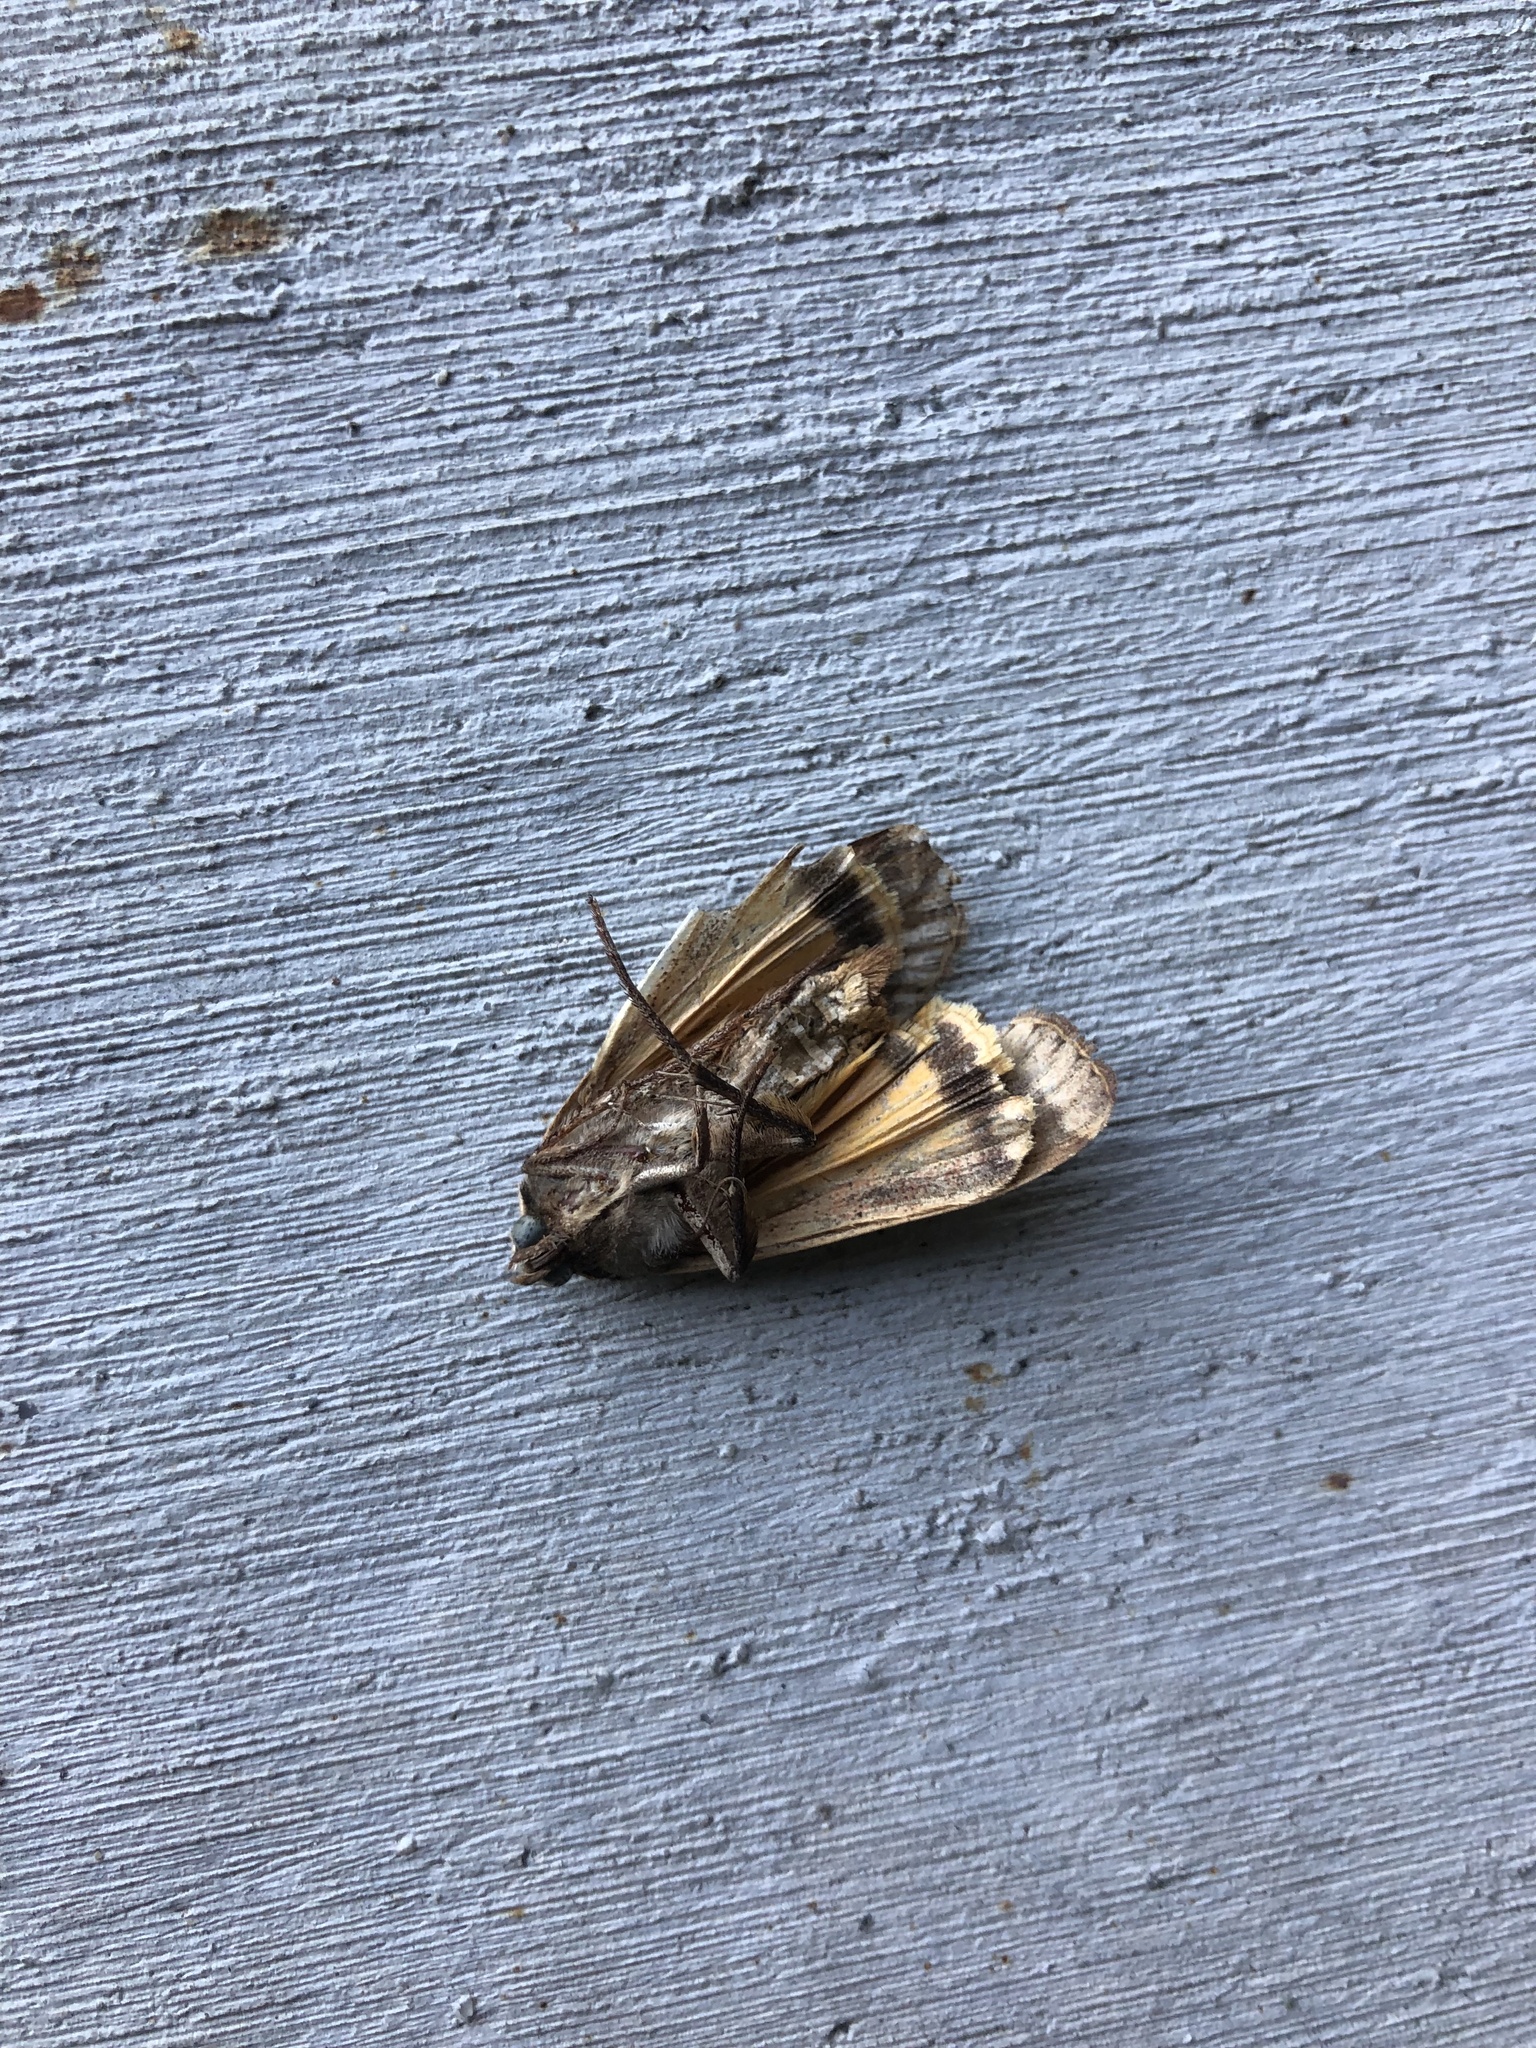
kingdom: Animalia
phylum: Arthropoda
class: Insecta
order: Lepidoptera
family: Noctuidae
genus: Noctua
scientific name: Noctua pronuba
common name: Large yellow underwing
